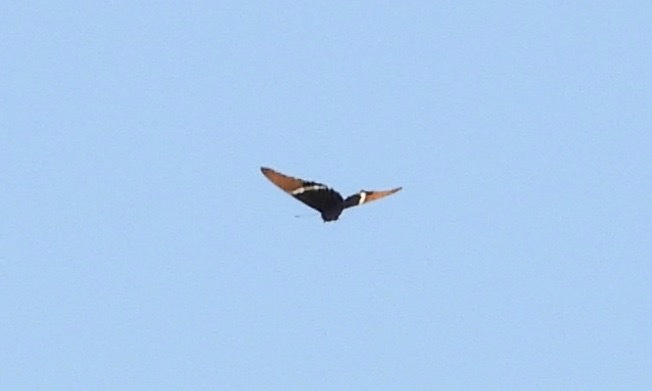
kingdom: Animalia
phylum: Arthropoda
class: Insecta
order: Lepidoptera
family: Nymphalidae
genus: Siproeta
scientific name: Siproeta epaphus
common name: Rusty-tipped page
